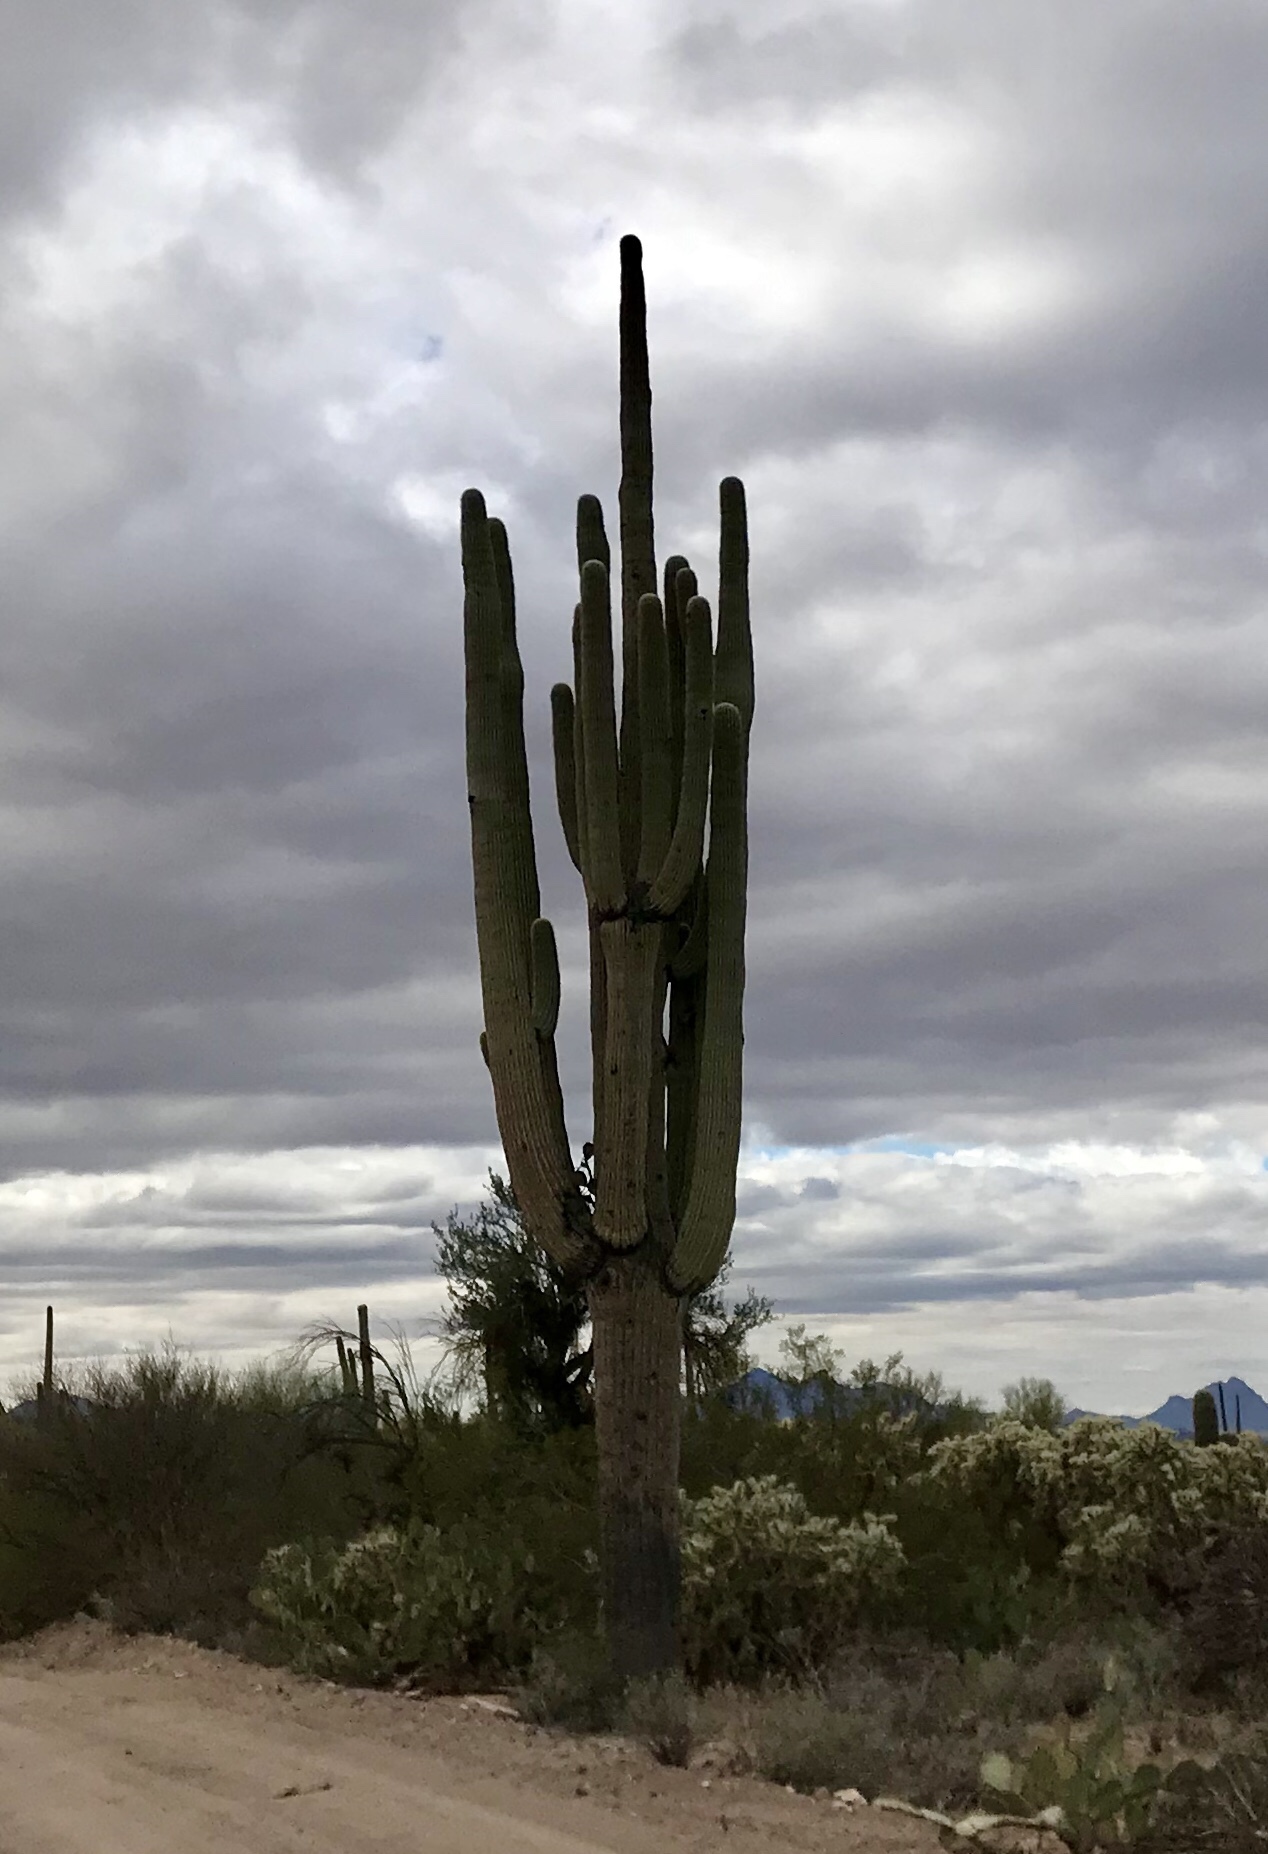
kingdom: Plantae
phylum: Tracheophyta
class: Magnoliopsida
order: Caryophyllales
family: Cactaceae
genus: Carnegiea
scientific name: Carnegiea gigantea
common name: Saguaro
